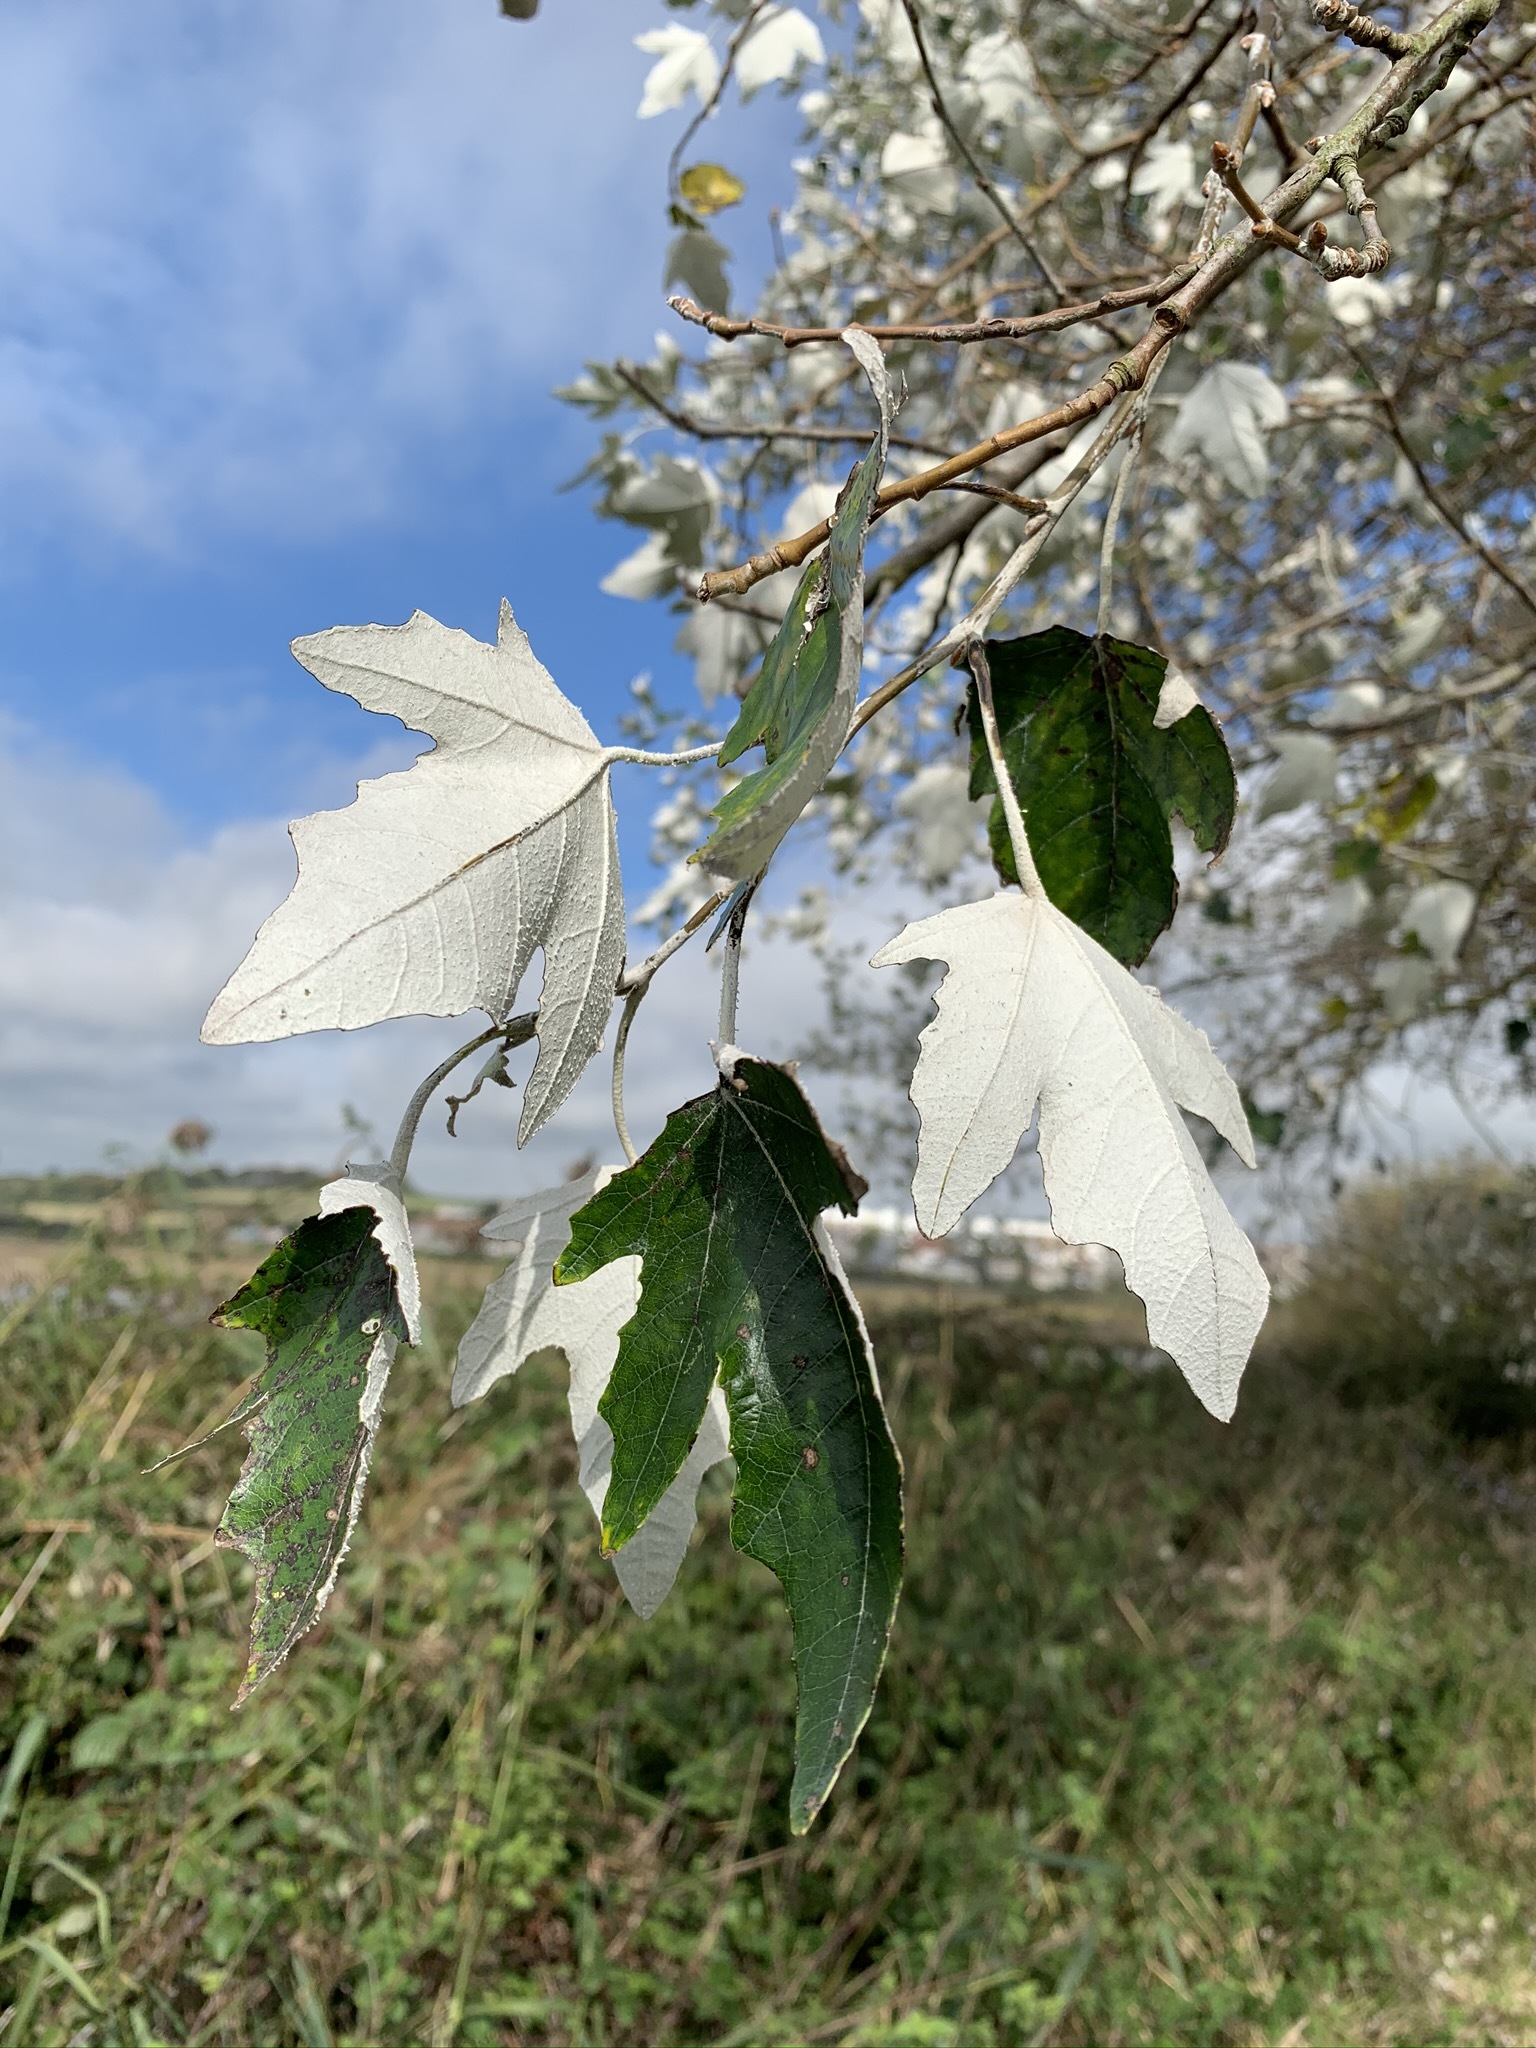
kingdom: Plantae
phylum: Tracheophyta
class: Magnoliopsida
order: Malpighiales
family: Salicaceae
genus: Populus
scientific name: Populus alba
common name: White poplar
